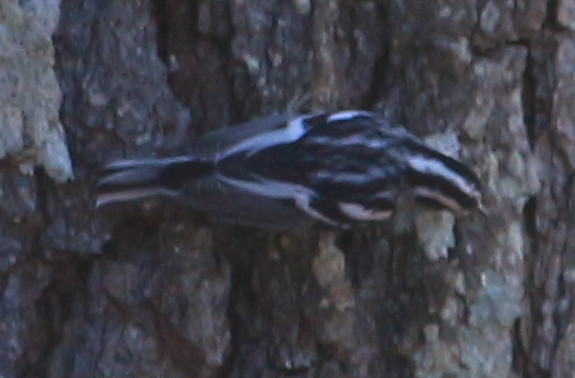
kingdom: Animalia
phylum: Chordata
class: Aves
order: Passeriformes
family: Parulidae
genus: Mniotilta
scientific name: Mniotilta varia
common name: Black-and-white warbler
